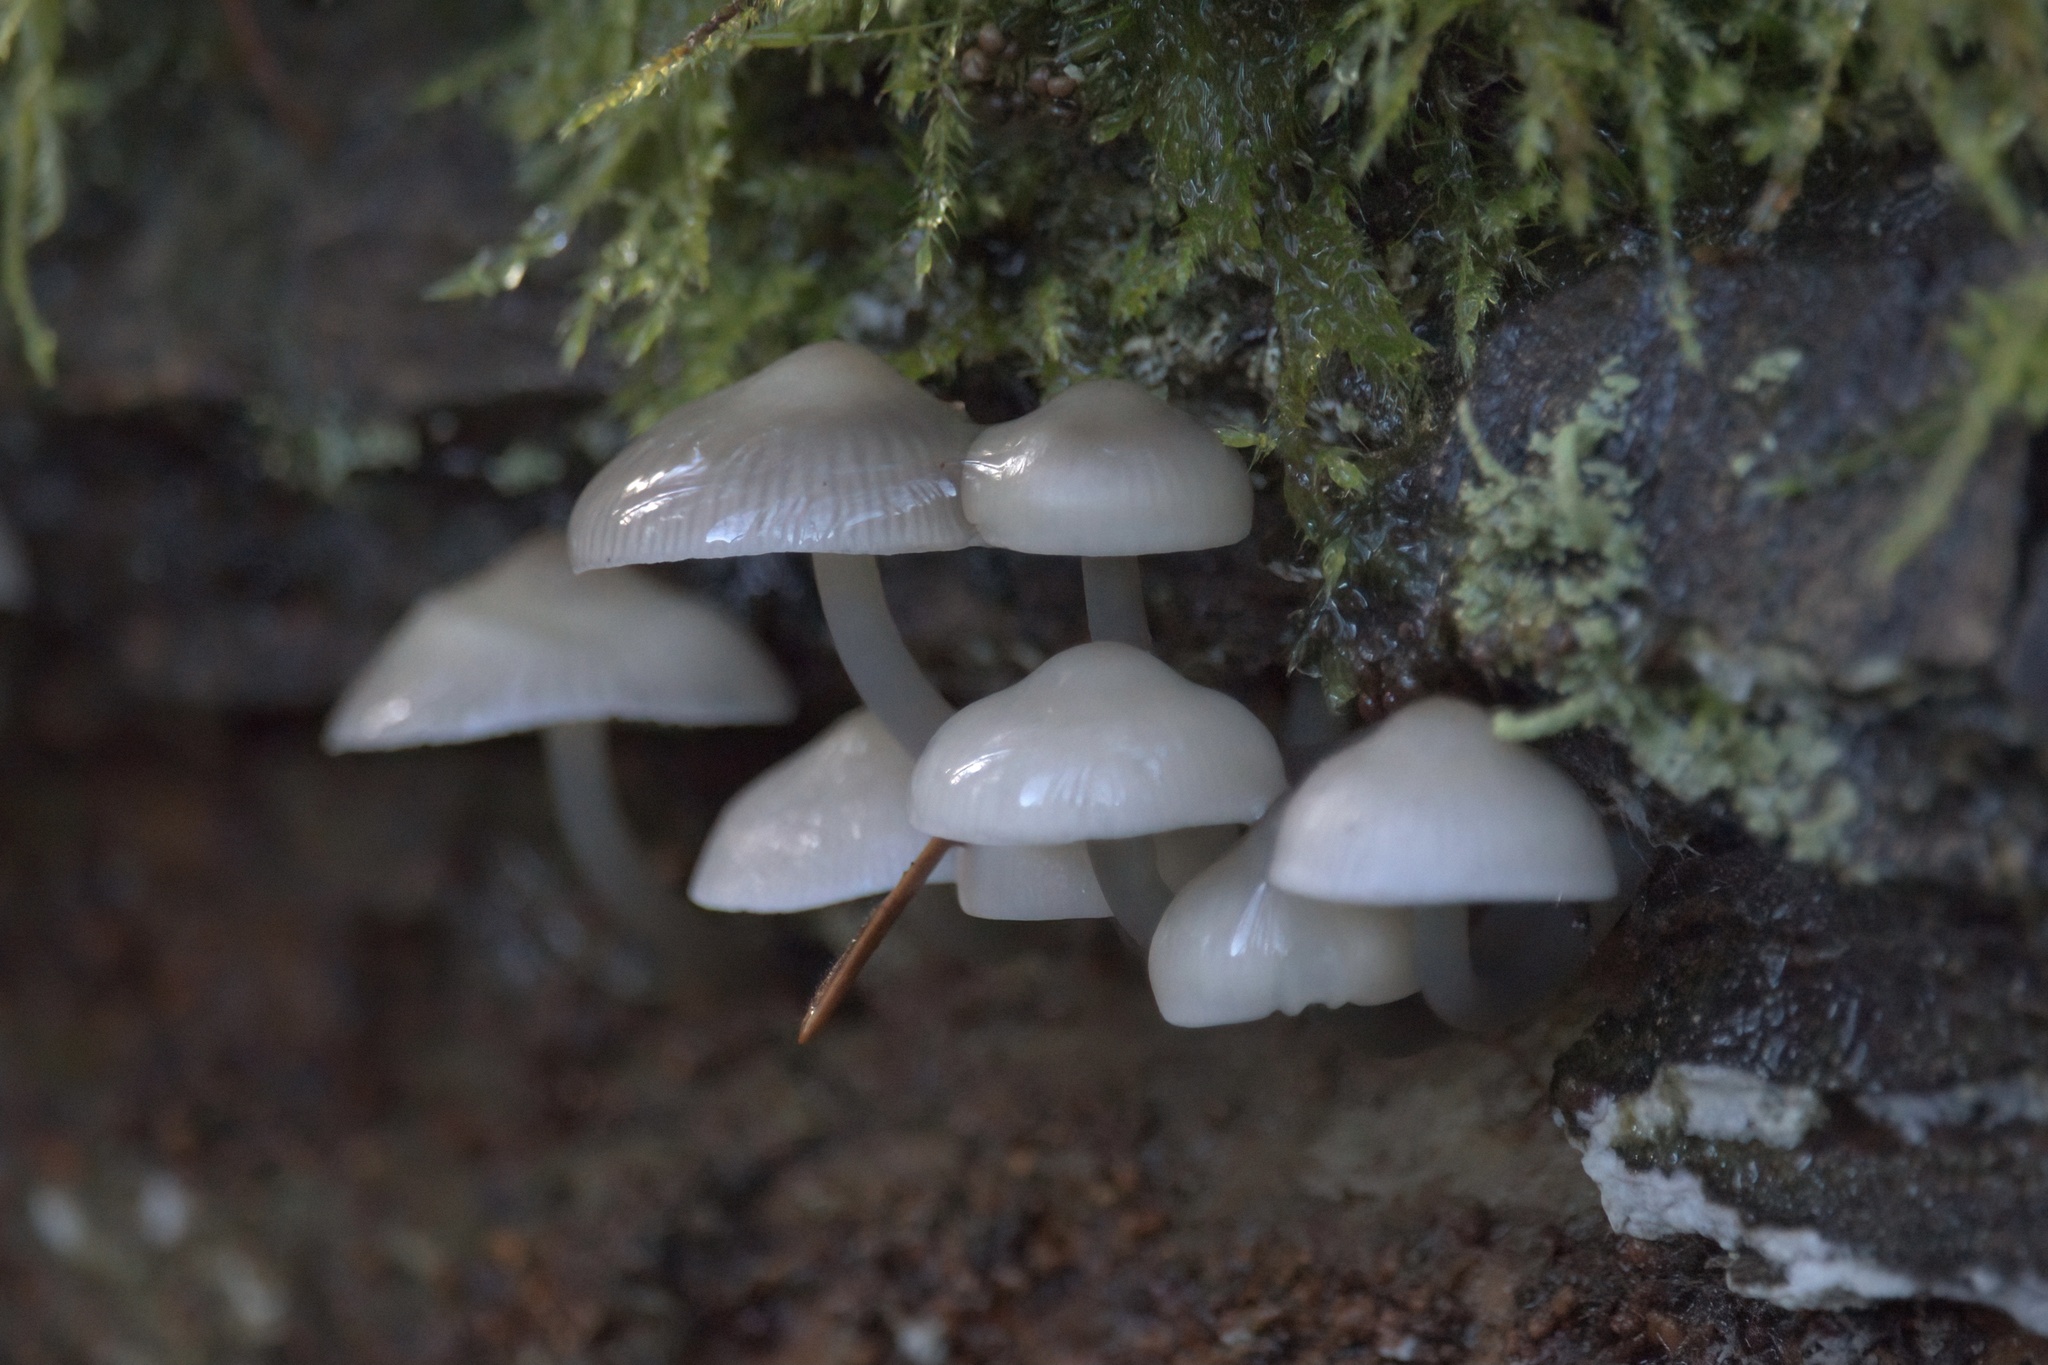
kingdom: Fungi
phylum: Basidiomycota
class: Agaricomycetes
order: Agaricales
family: Mycenaceae
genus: Mycena
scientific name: Mycena galericulata
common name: Bonnet mycena
